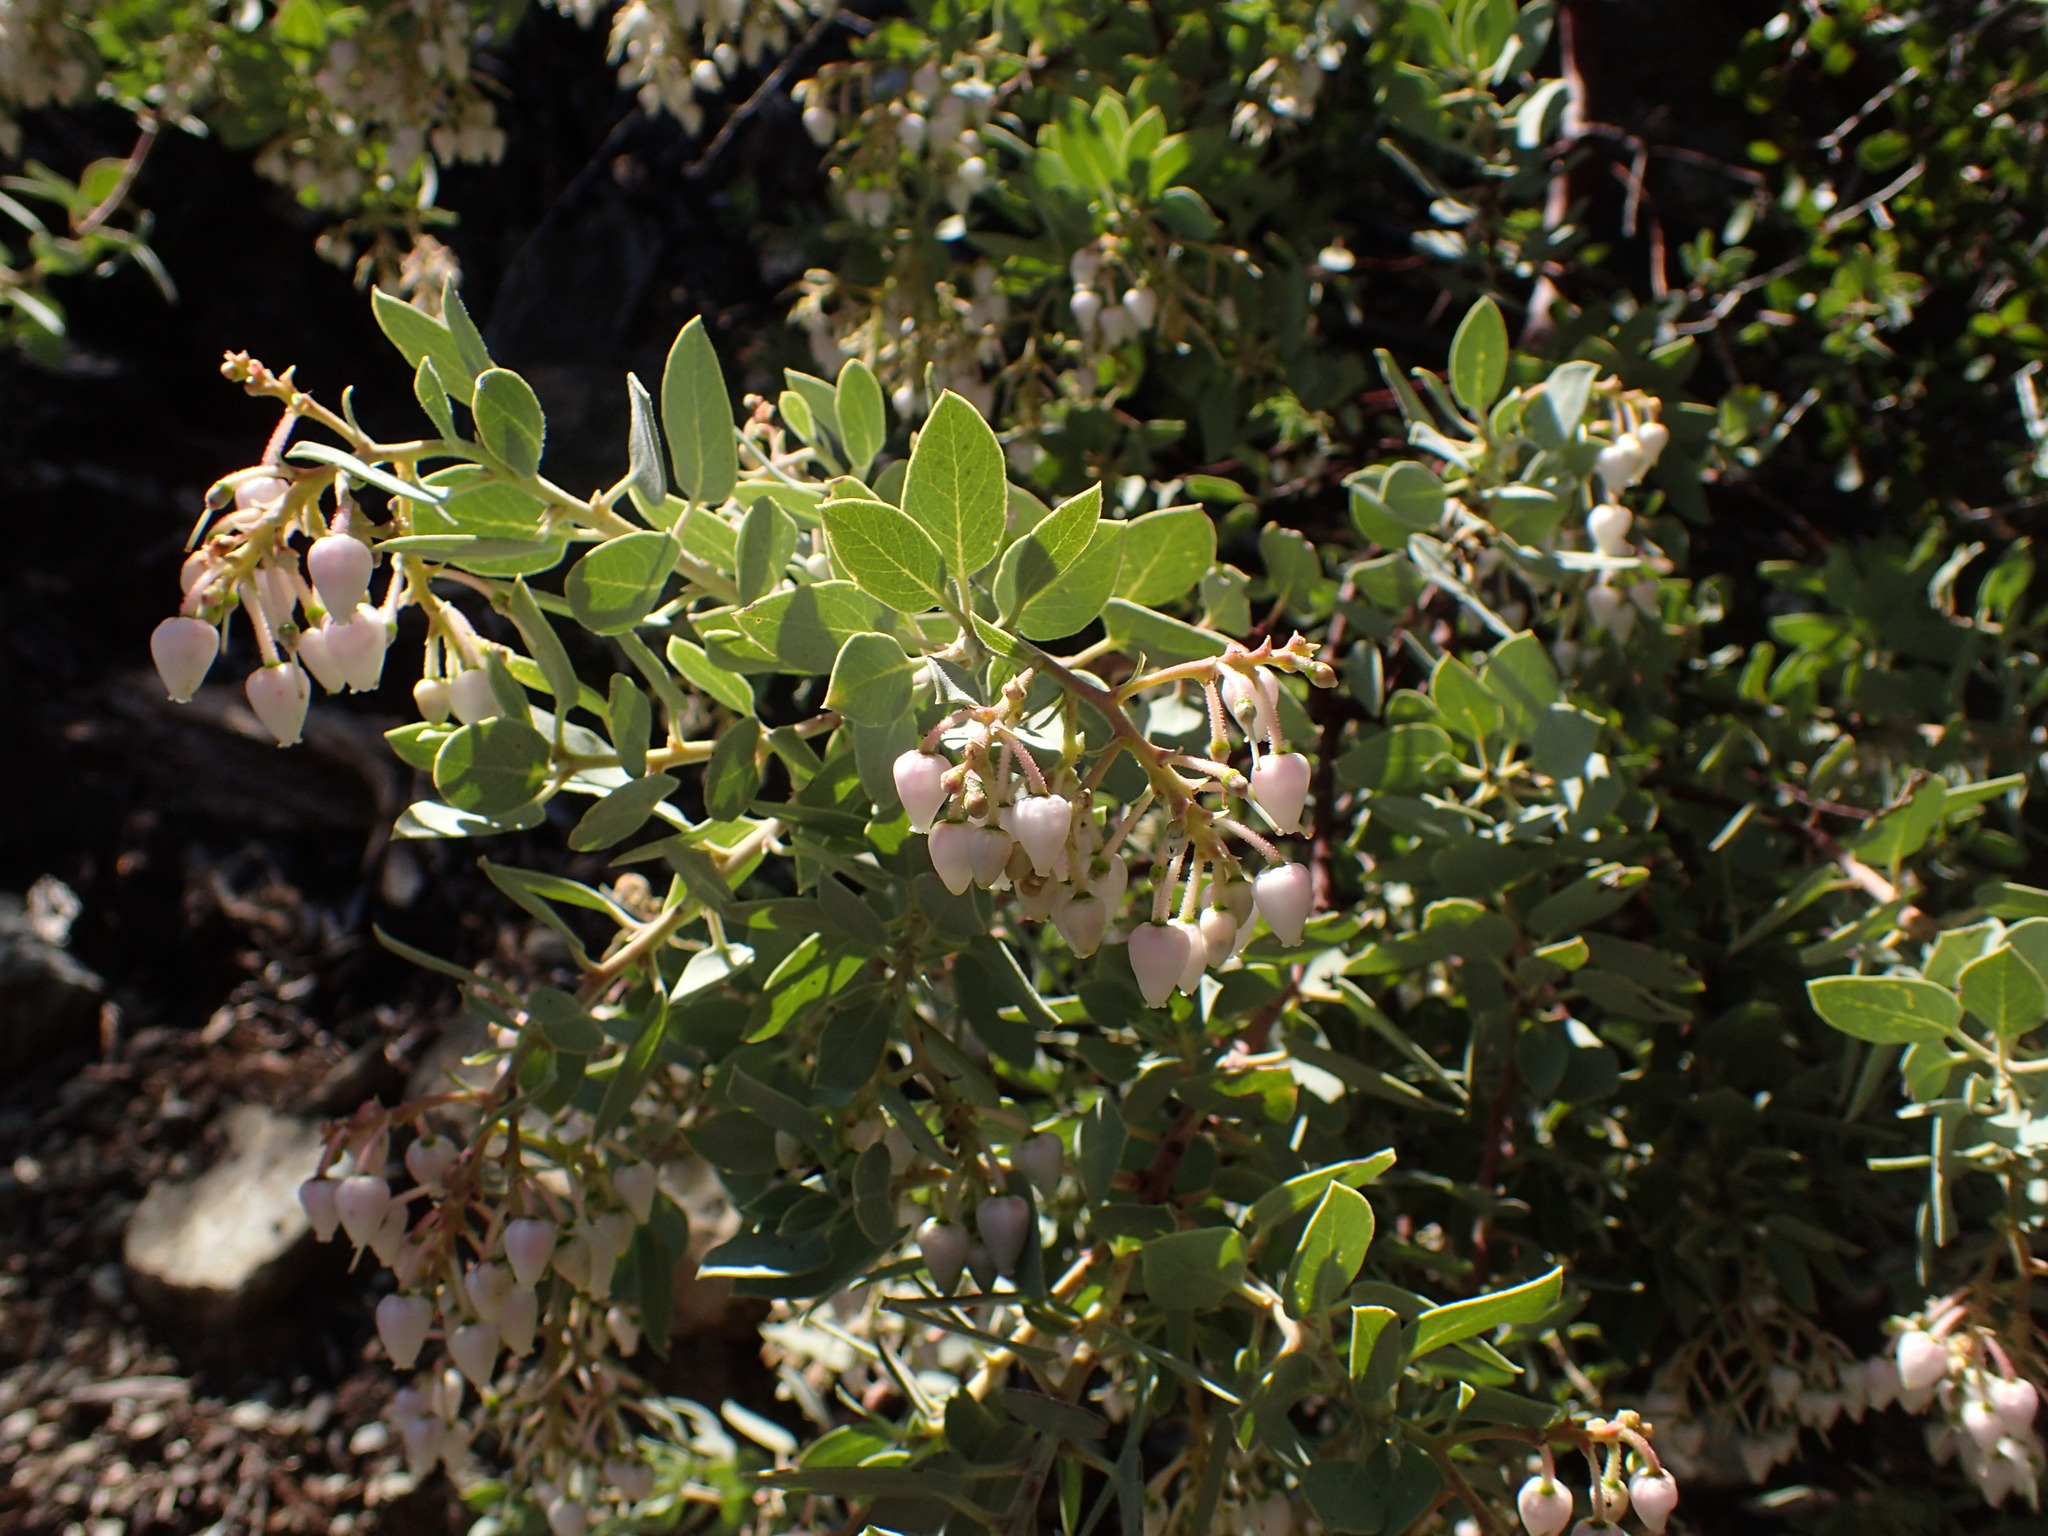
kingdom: Plantae
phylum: Tracheophyta
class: Magnoliopsida
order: Ericales
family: Ericaceae
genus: Arctostaphylos
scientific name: Arctostaphylos glauca
